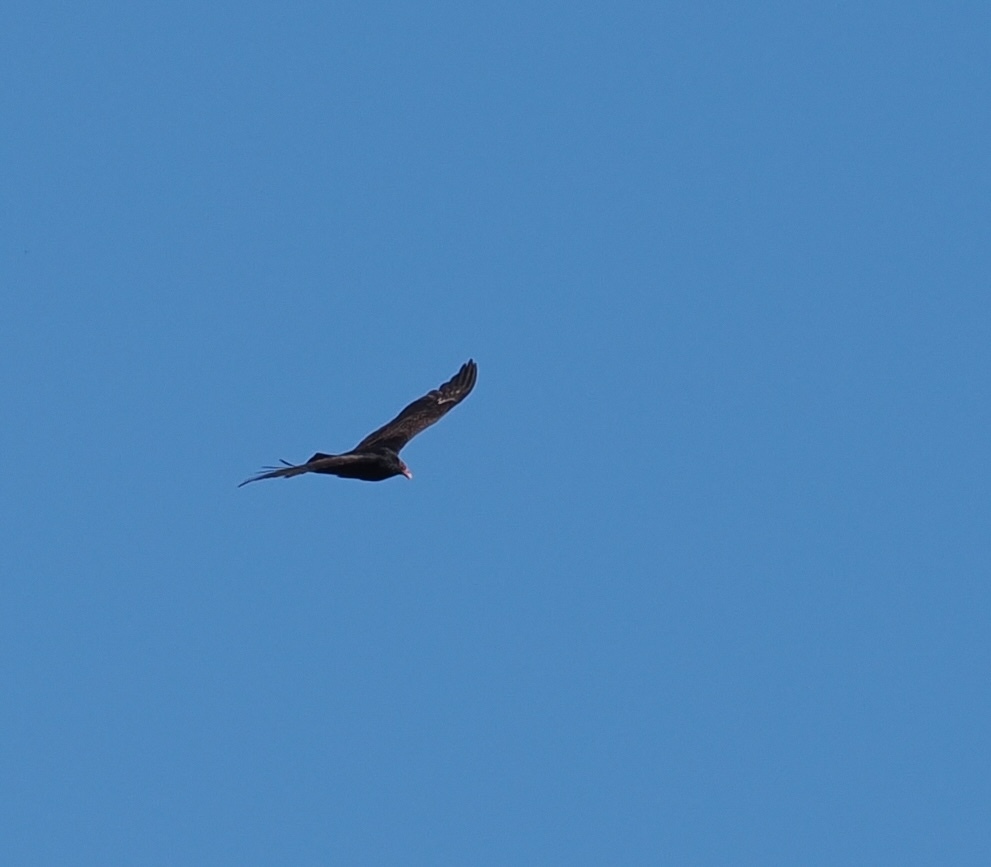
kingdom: Animalia
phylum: Chordata
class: Aves
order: Accipitriformes
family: Cathartidae
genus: Cathartes
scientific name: Cathartes aura
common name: Turkey vulture
